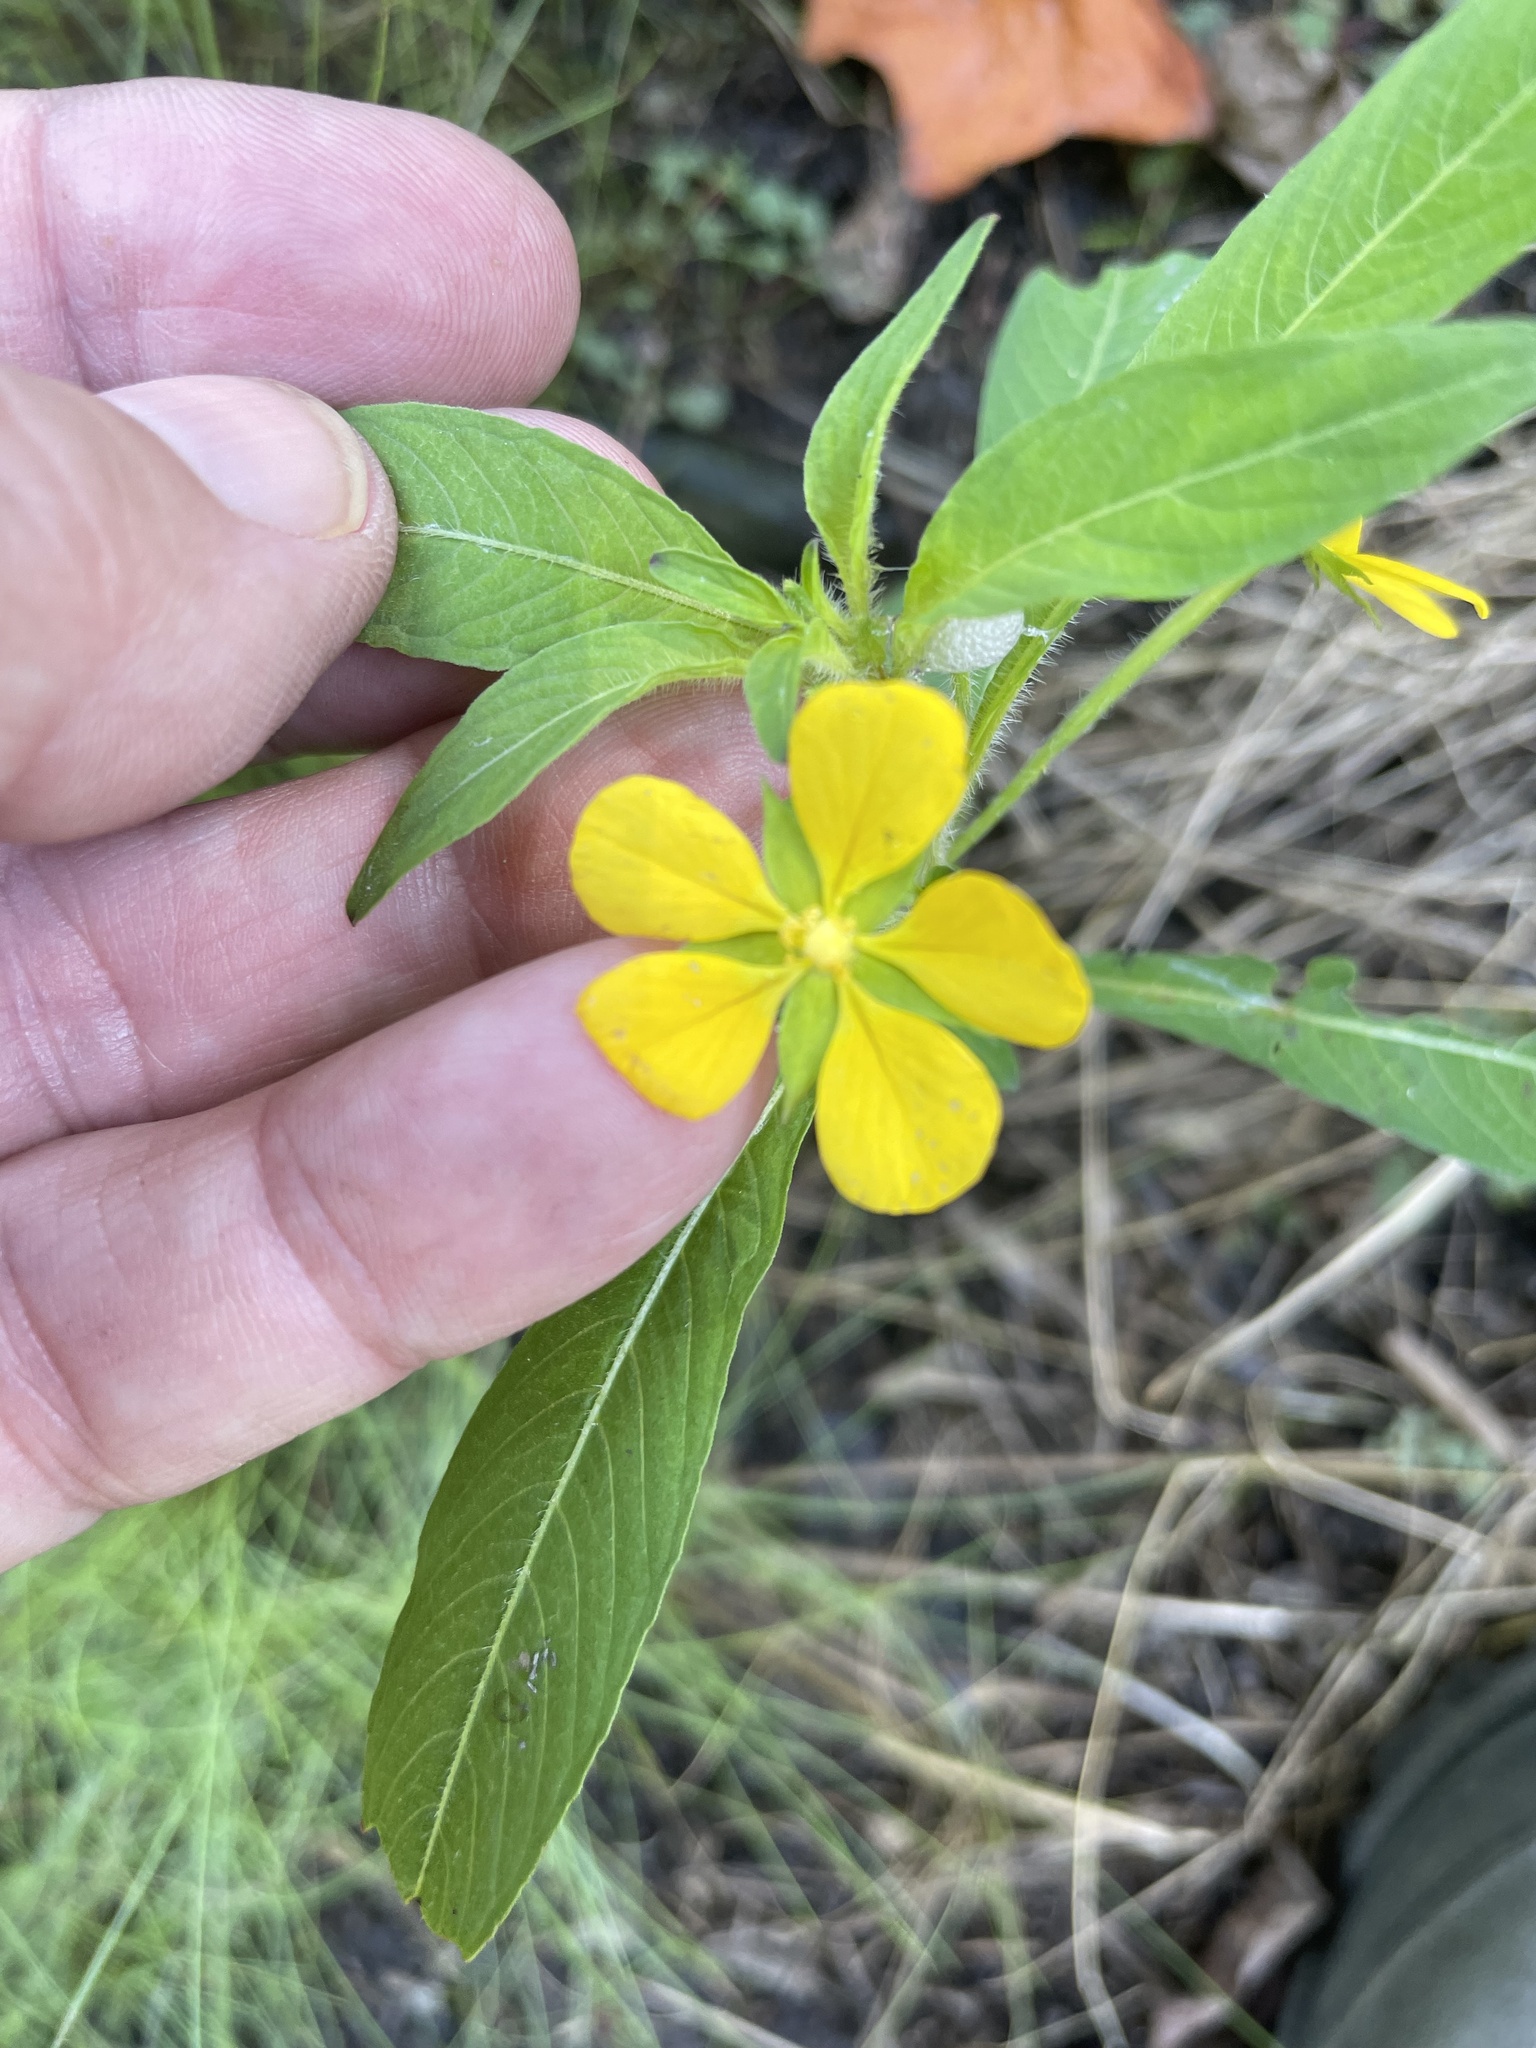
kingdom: Plantae
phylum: Tracheophyta
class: Magnoliopsida
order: Myrtales
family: Onagraceae
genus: Ludwigia
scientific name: Ludwigia leptocarpa
